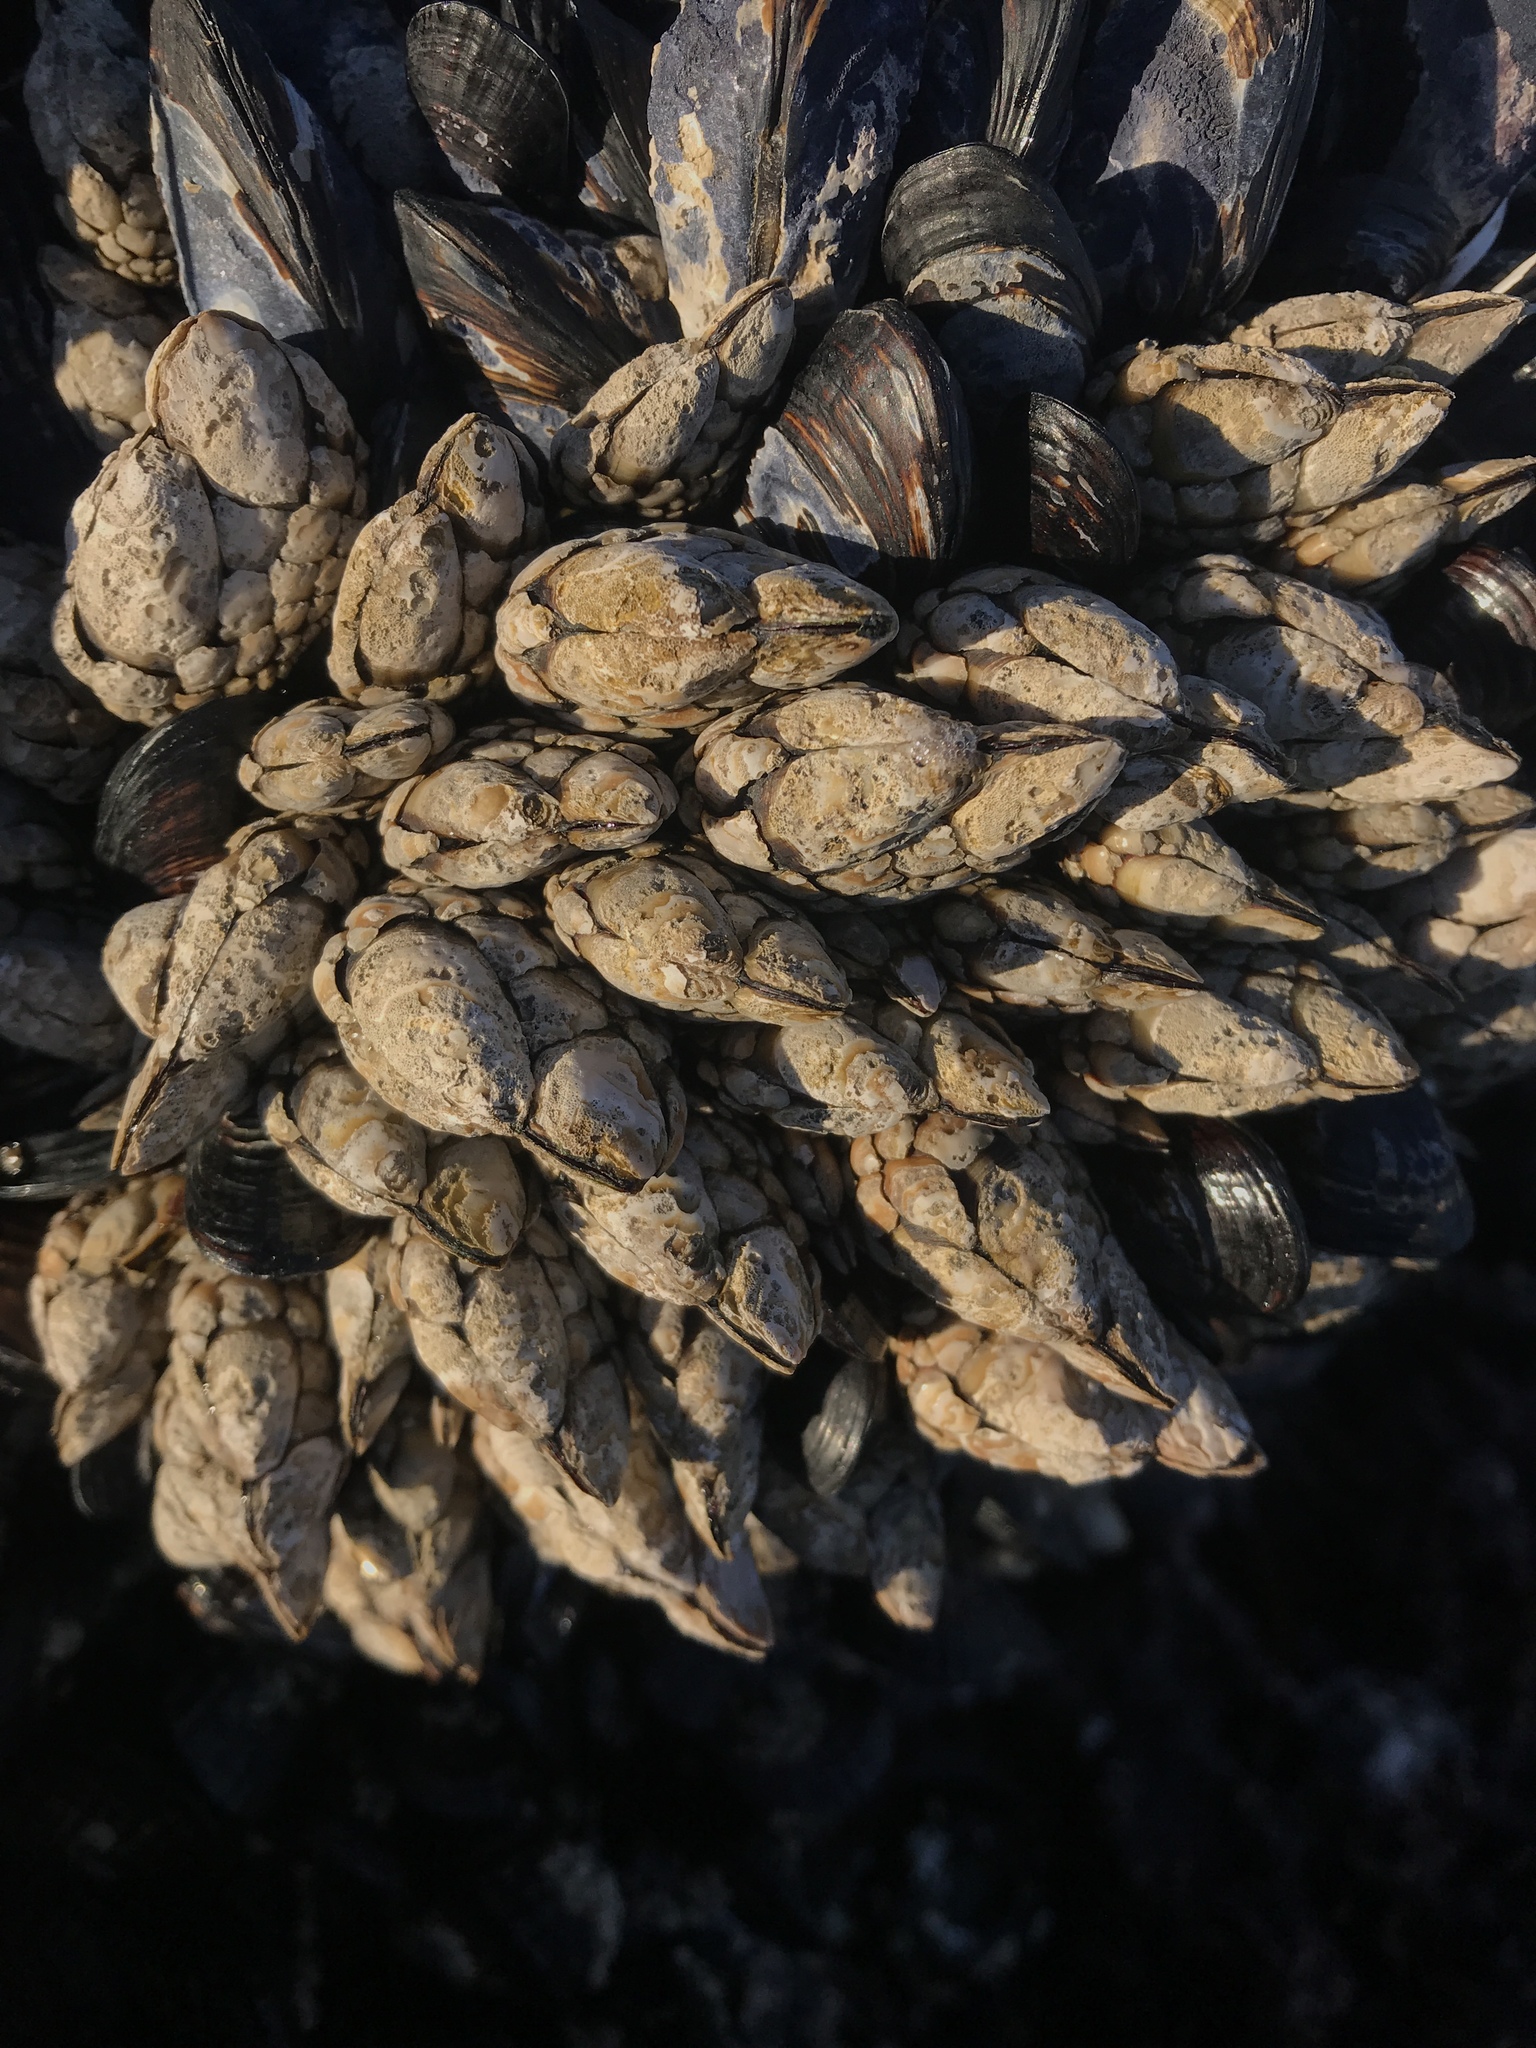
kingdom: Animalia
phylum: Arthropoda
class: Maxillopoda
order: Pedunculata
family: Pollicipedidae
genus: Pollicipes
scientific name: Pollicipes polymerus
